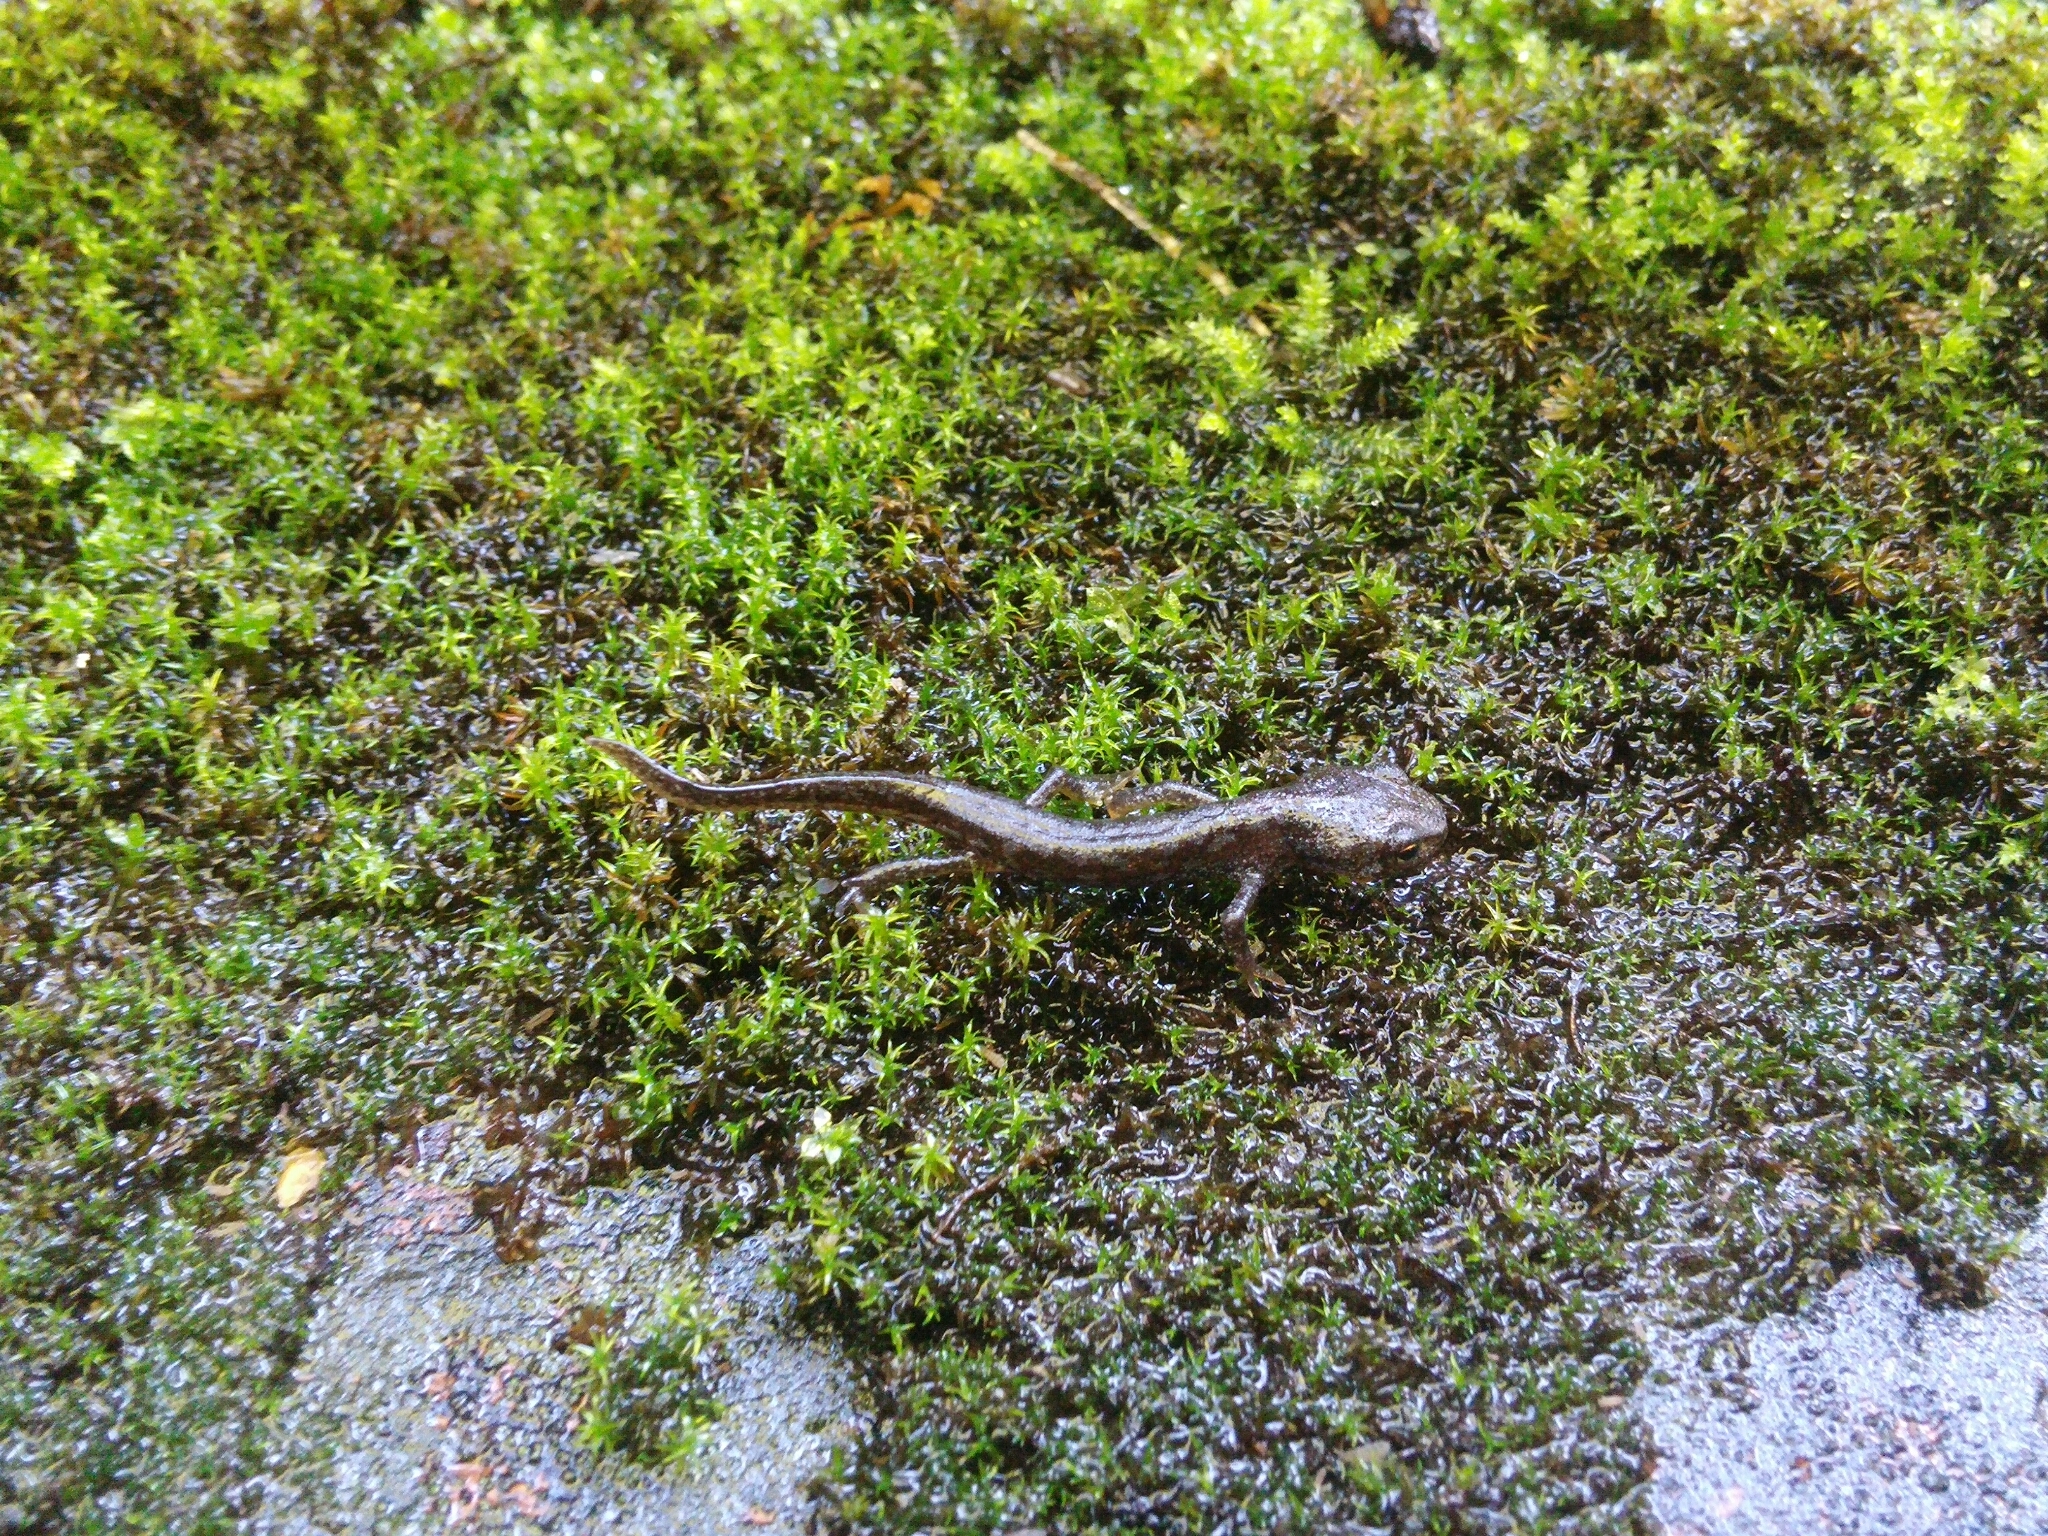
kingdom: Animalia
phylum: Chordata
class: Amphibia
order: Caudata
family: Salamandridae
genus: Ichthyosaura
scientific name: Ichthyosaura alpestris
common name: Alpine newt
